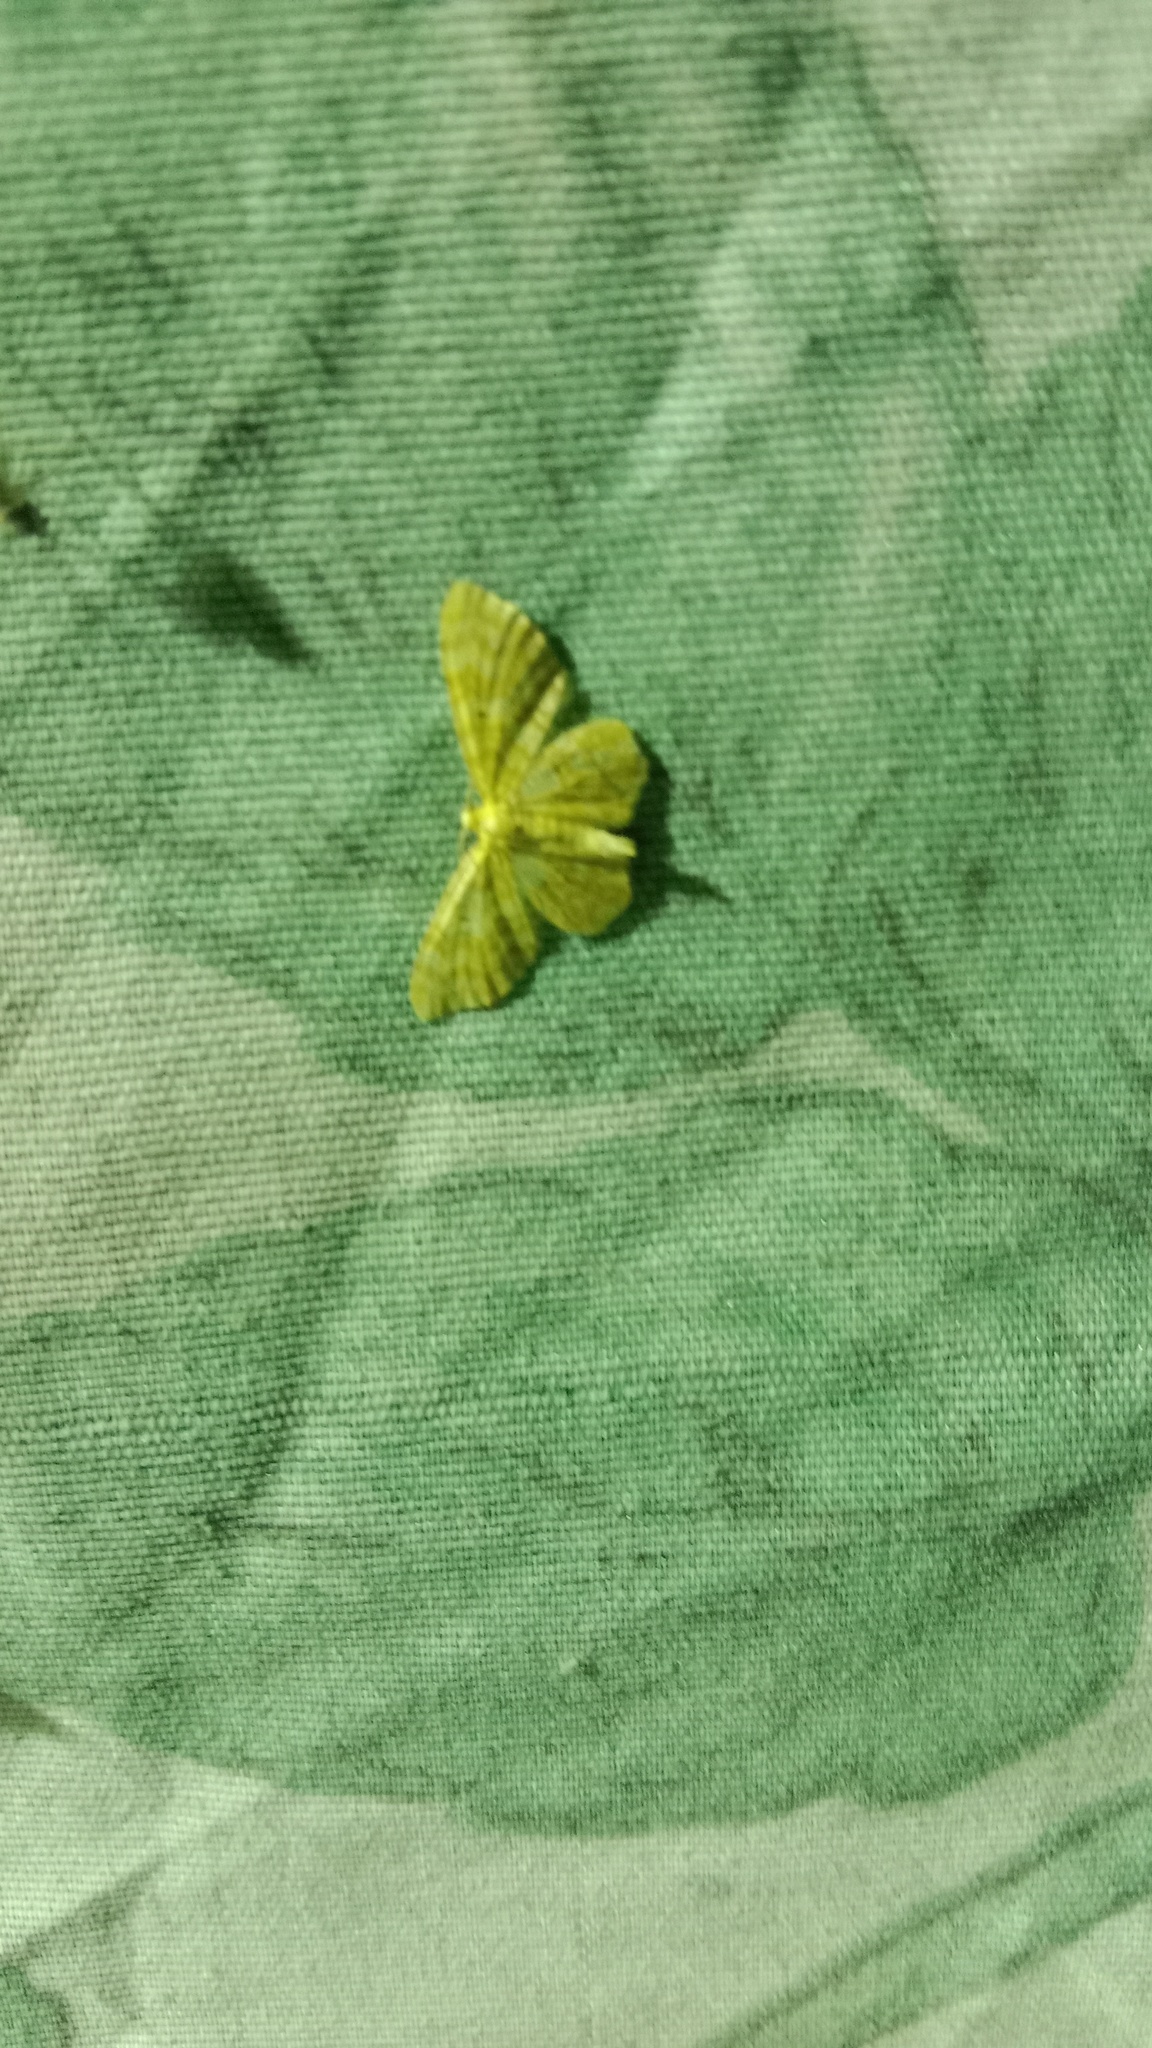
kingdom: Animalia
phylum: Arthropoda
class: Insecta
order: Lepidoptera
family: Geometridae
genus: Hydrelia
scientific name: Hydrelia flammeolaria
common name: Small yellow wave
